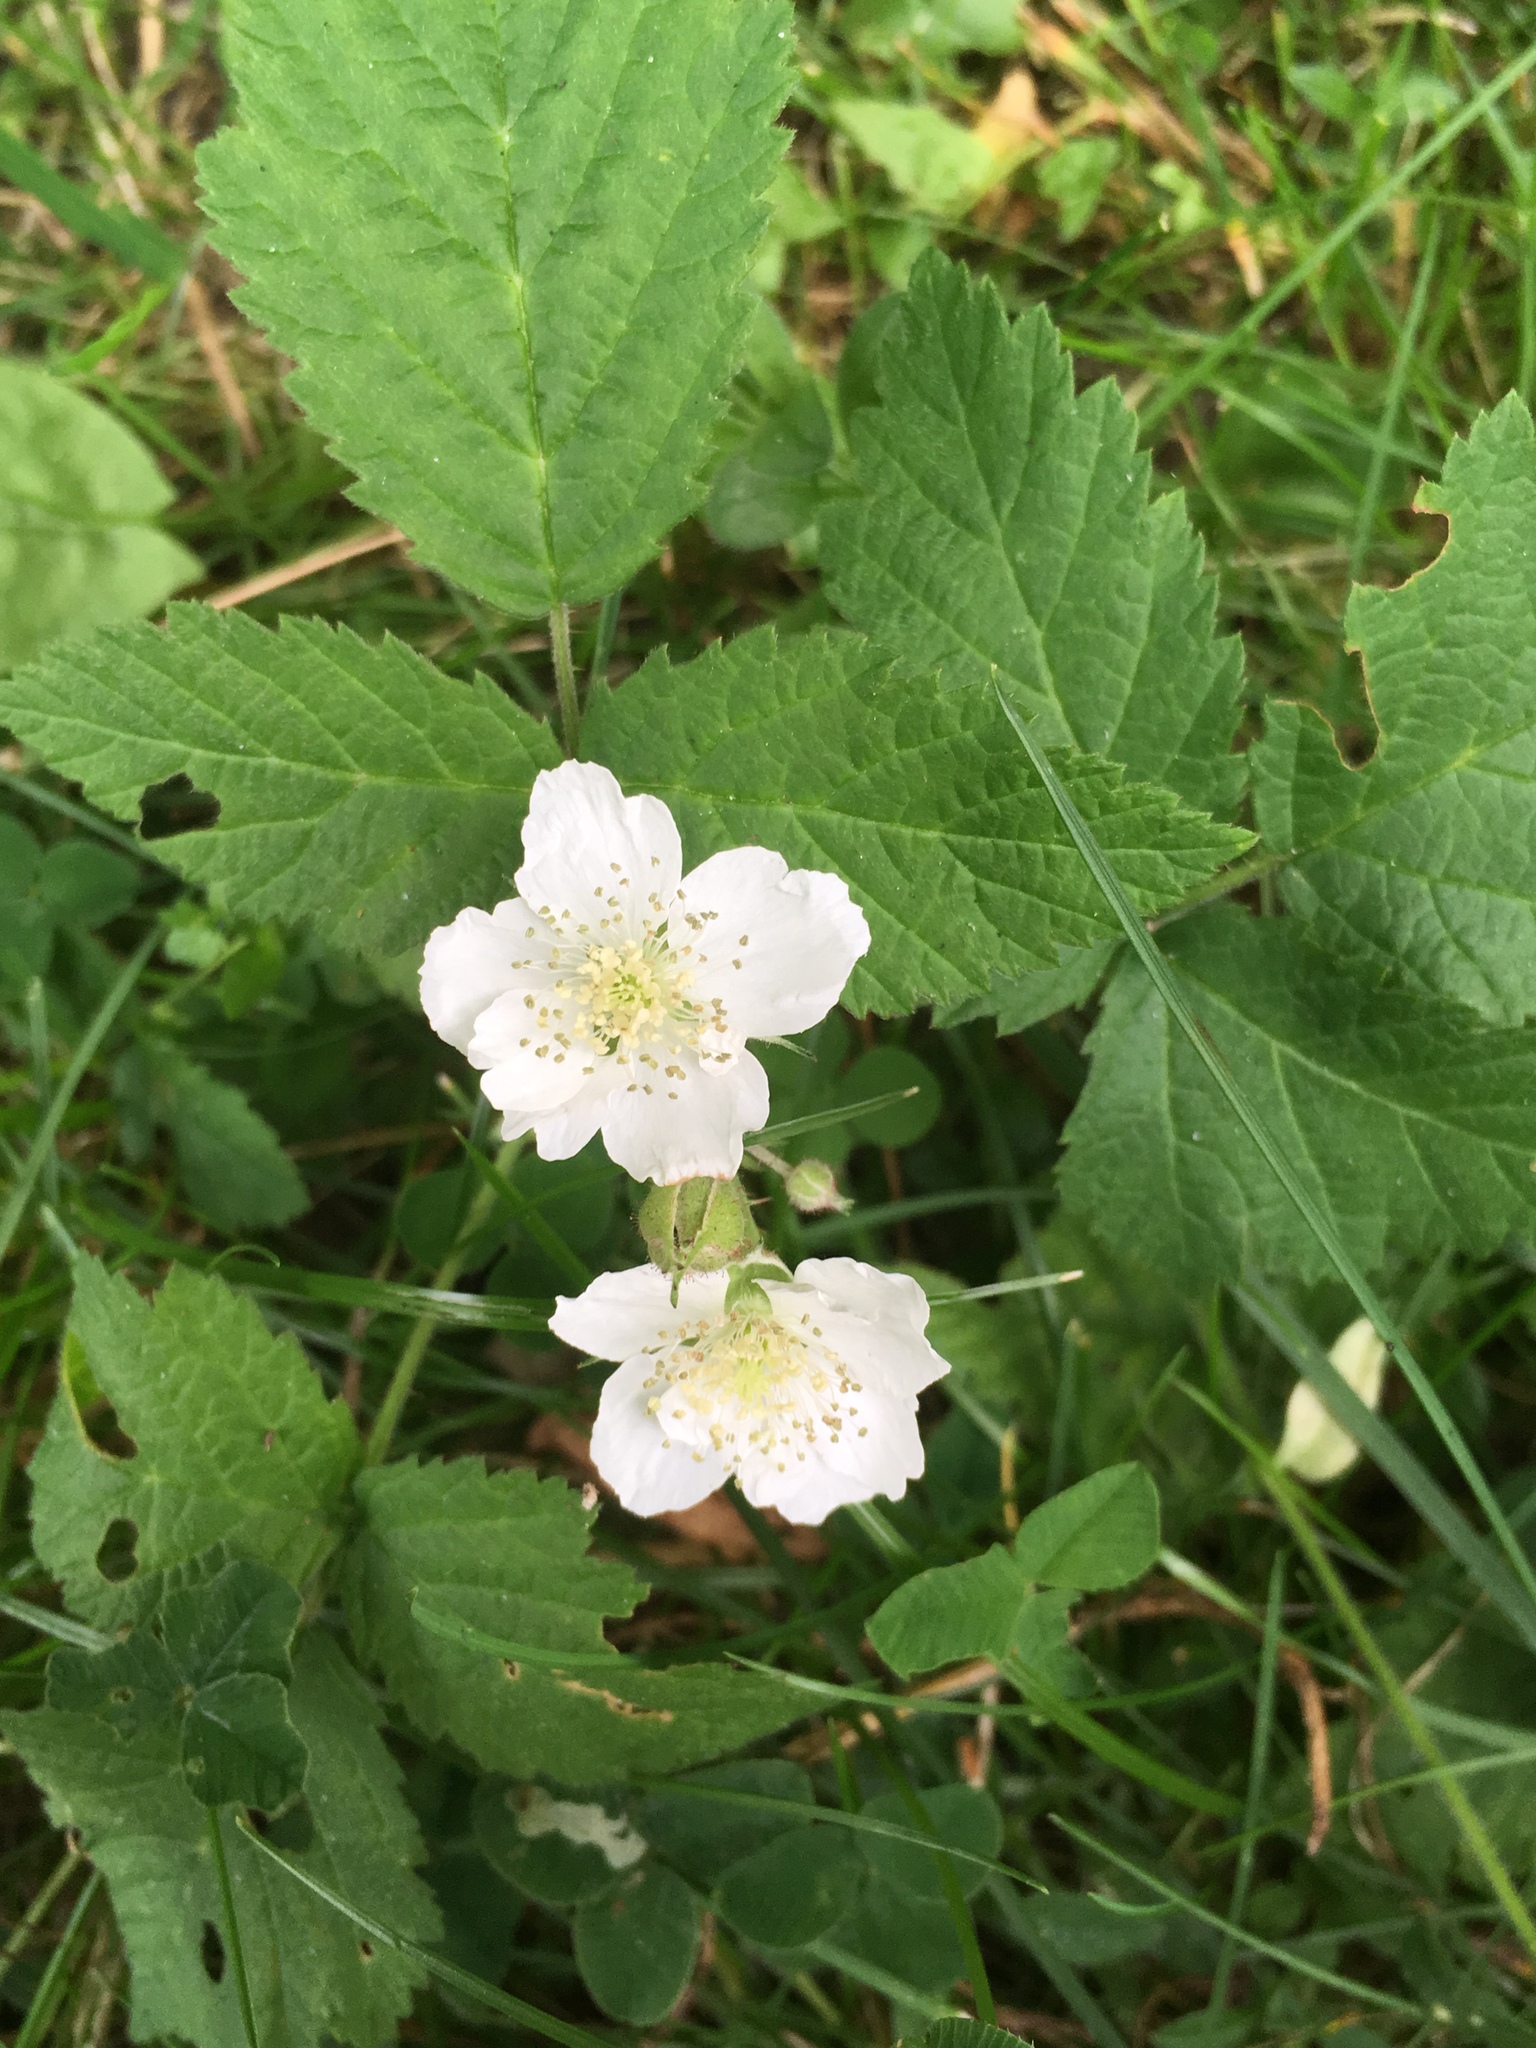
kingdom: Plantae
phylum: Tracheophyta
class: Magnoliopsida
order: Rosales
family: Rosaceae
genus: Rubus
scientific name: Rubus caesius
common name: Dewberry
